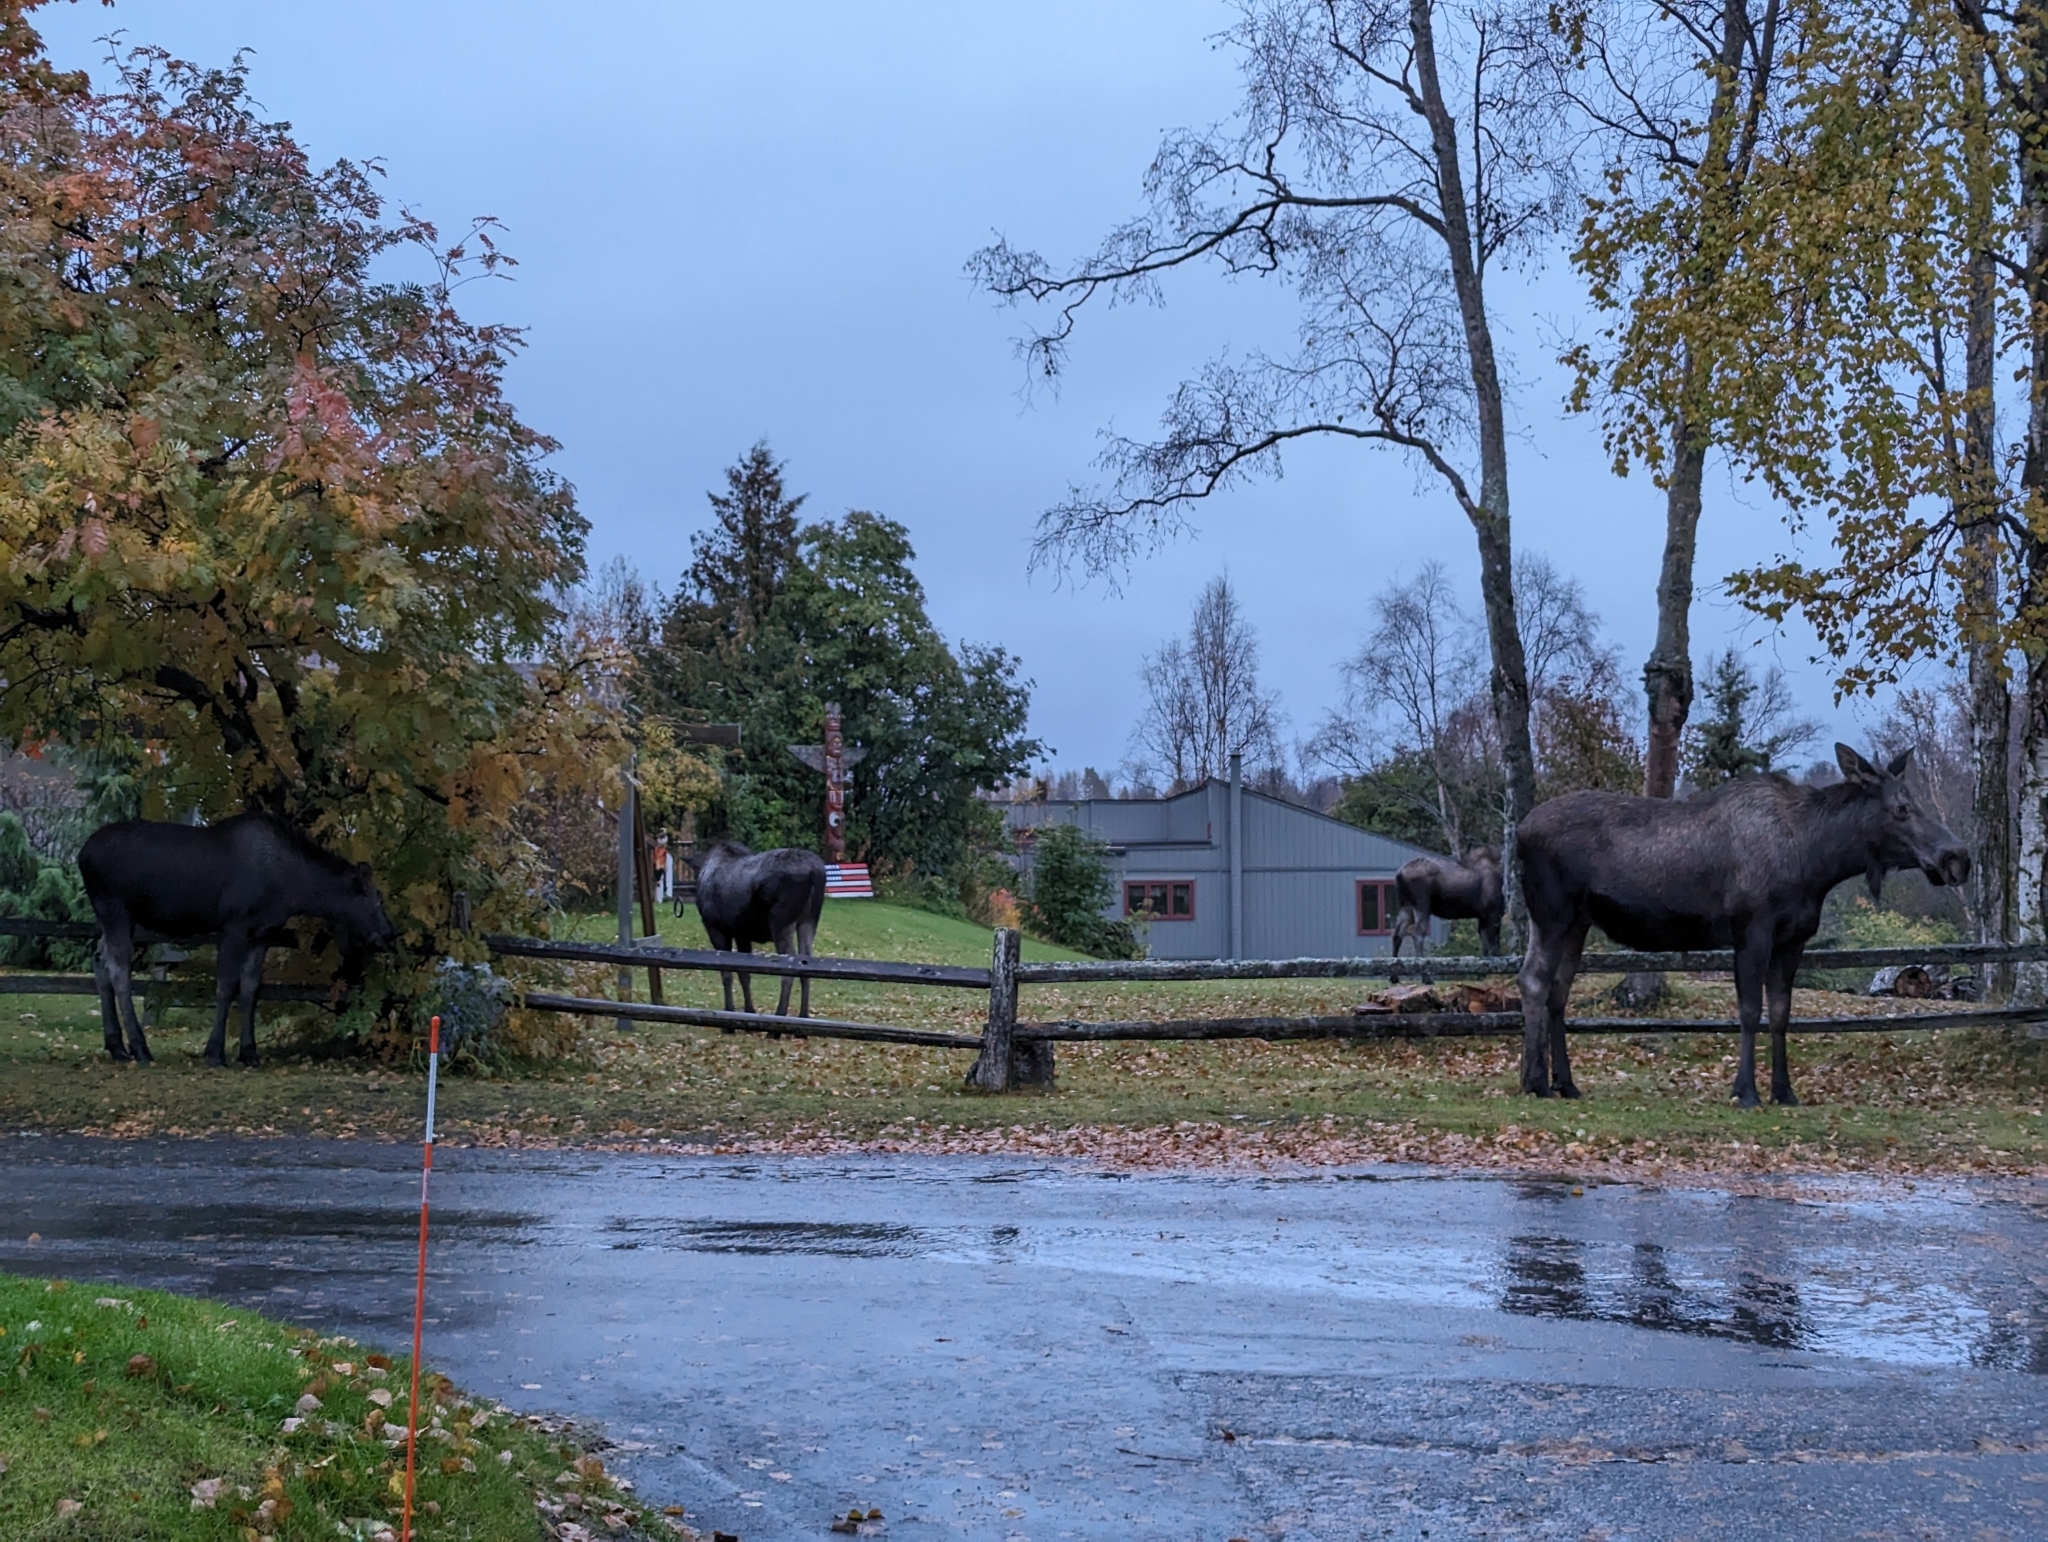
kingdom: Animalia
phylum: Chordata
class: Mammalia
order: Artiodactyla
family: Cervidae
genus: Alces
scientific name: Alces alces
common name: Moose
